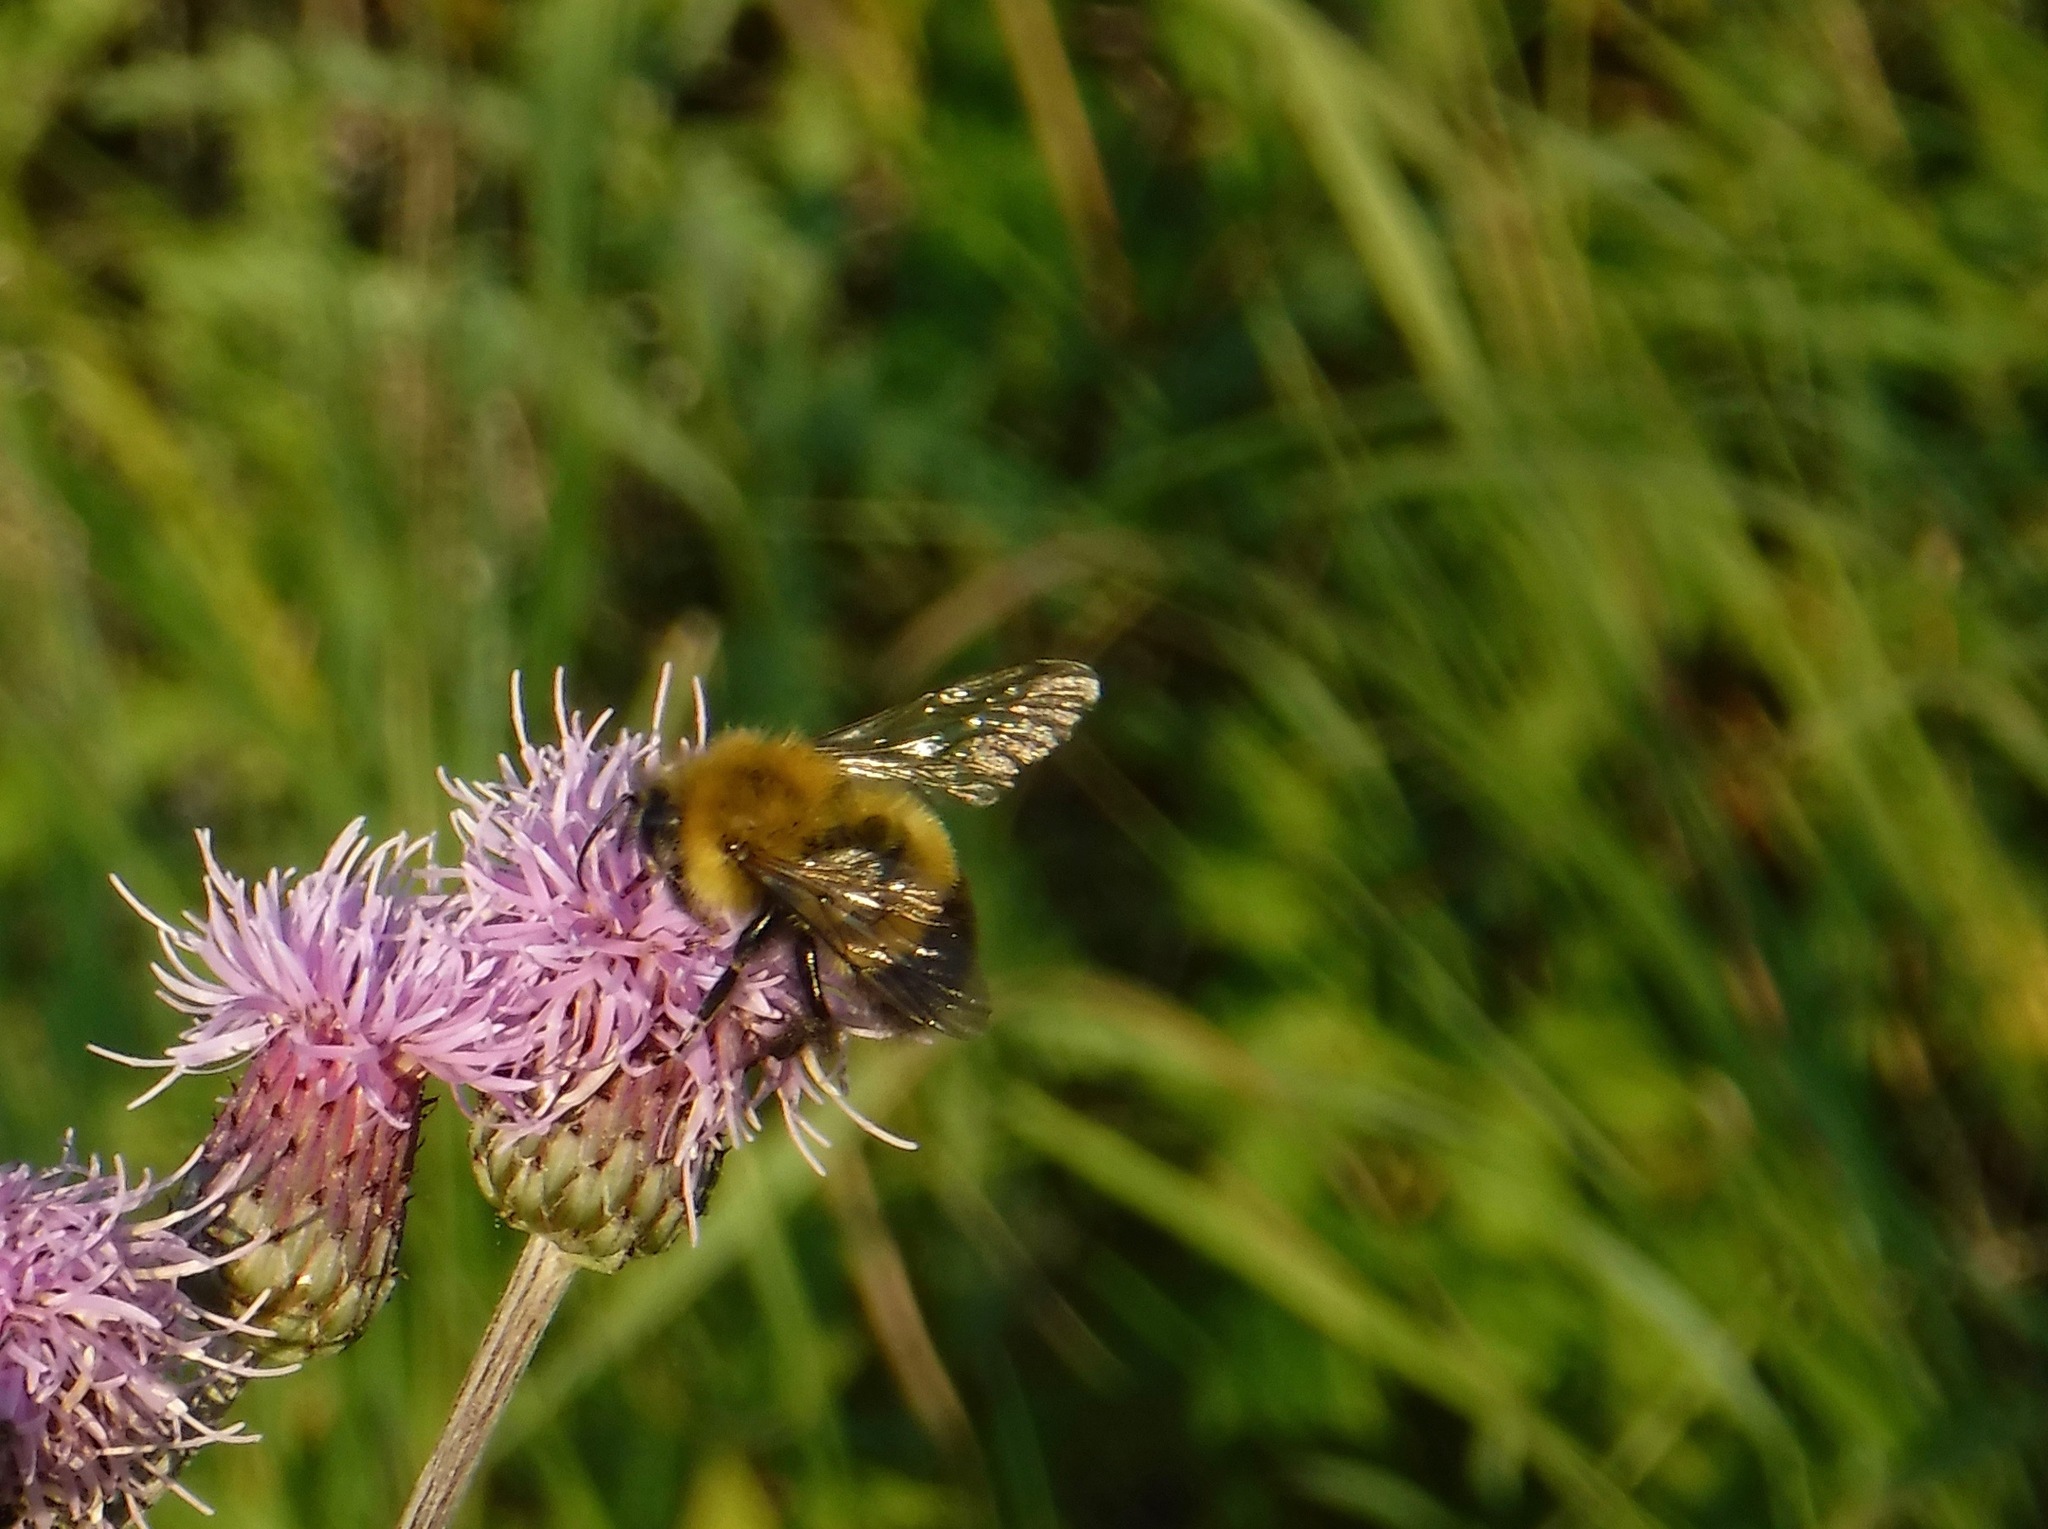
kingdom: Animalia
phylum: Arthropoda
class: Insecta
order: Hymenoptera
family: Apidae
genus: Bombus
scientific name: Bombus perplexus
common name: Confusing bumble bee
